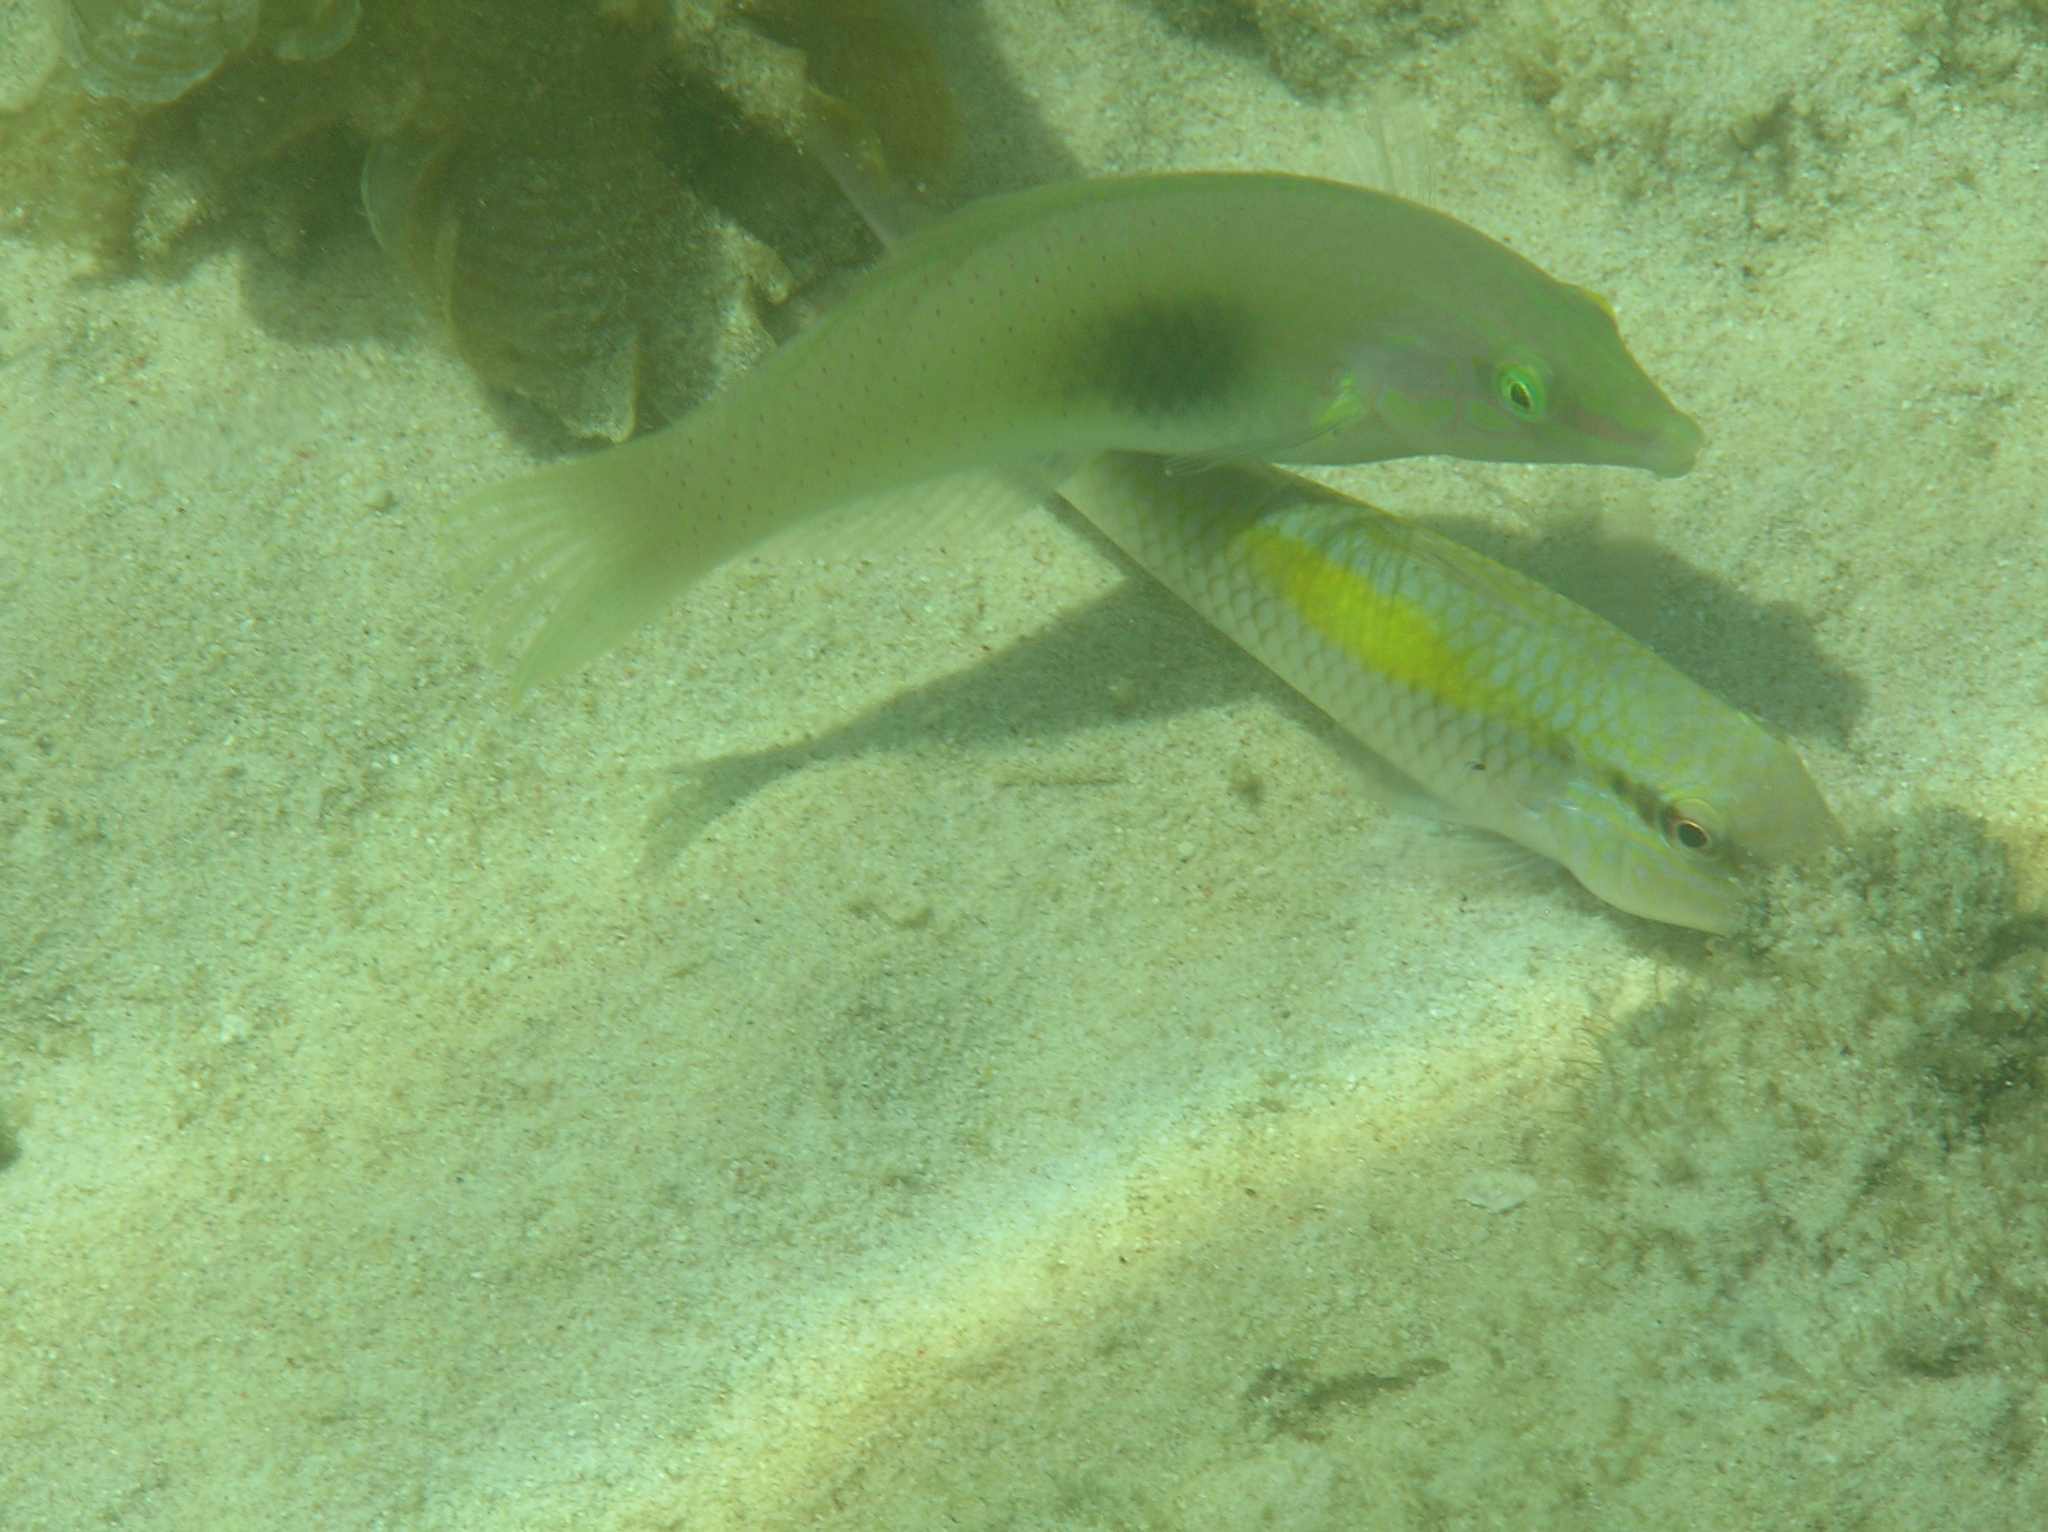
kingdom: Animalia
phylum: Chordata
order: Perciformes
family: Labridae
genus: Halichoeres
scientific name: Halichoeres chloropterus
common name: Pastel-green wrasse
